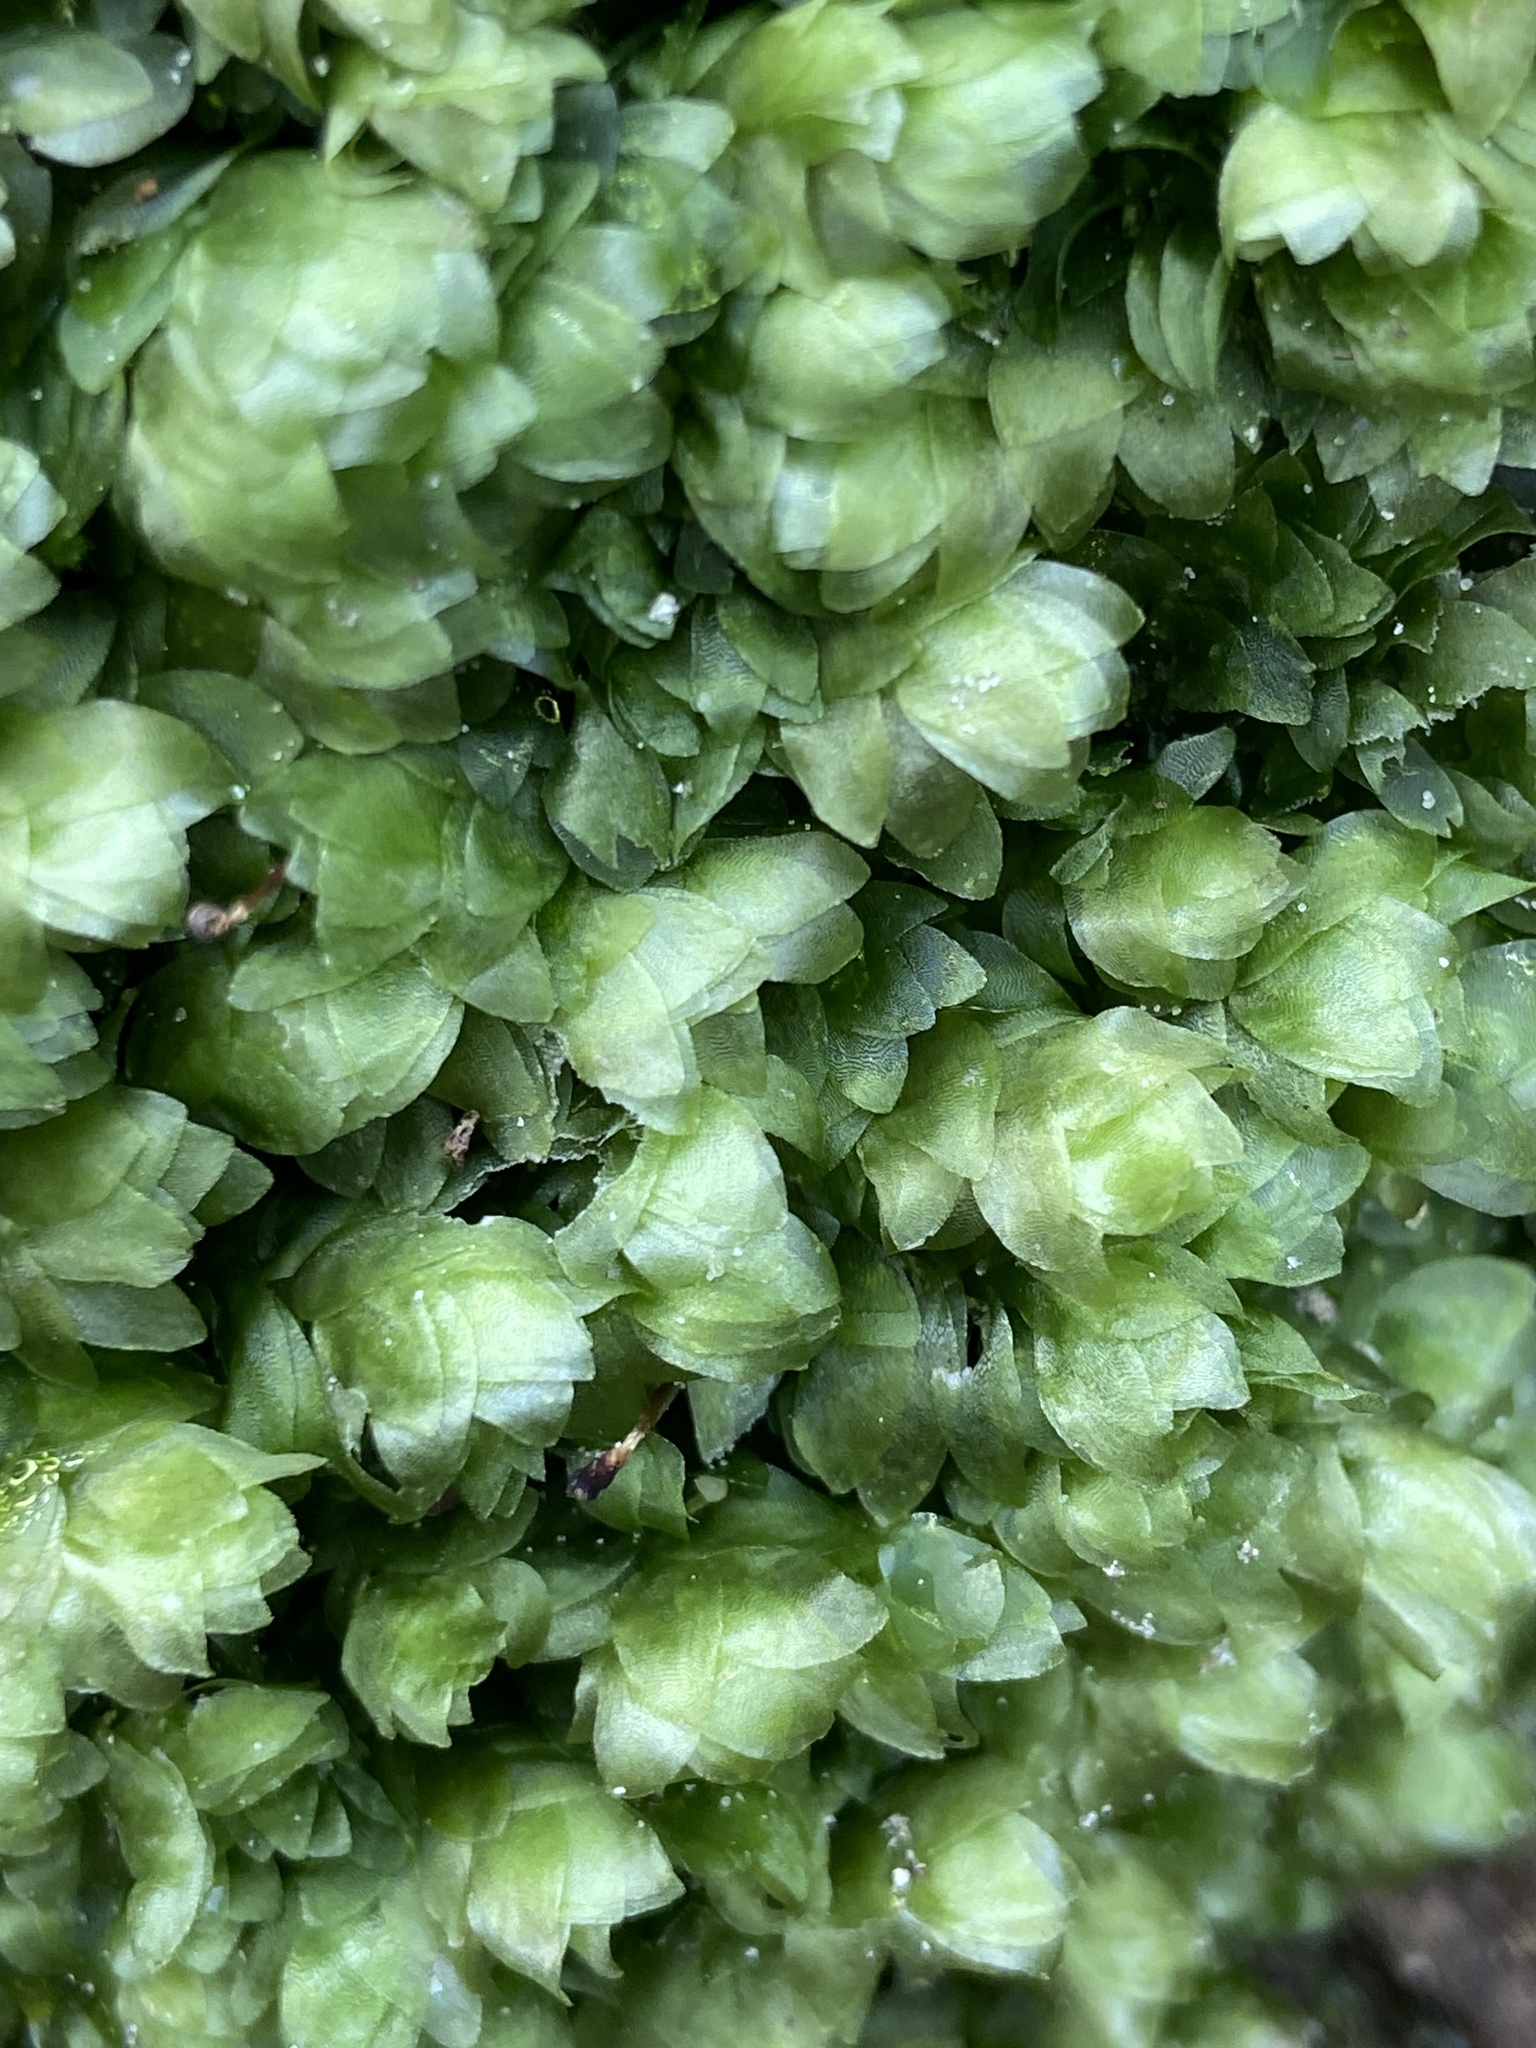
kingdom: Plantae
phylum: Bryophyta
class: Bryopsida
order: Hookeriales
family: Hookeriaceae
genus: Hookeria
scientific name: Hookeria lucens
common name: Shining hookeria
